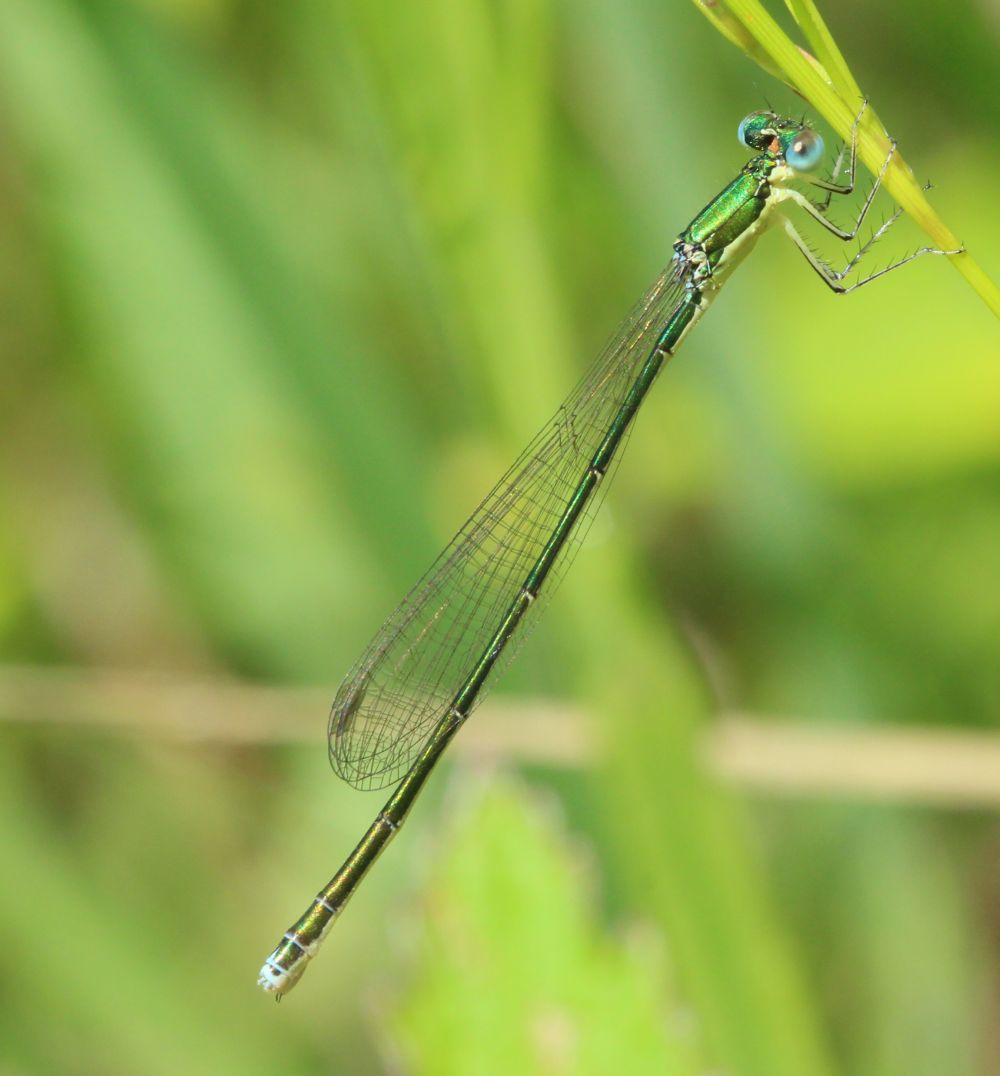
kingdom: Animalia
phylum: Arthropoda
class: Insecta
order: Odonata
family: Coenagrionidae
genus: Nehalennia
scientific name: Nehalennia irene
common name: Sedge sprite
